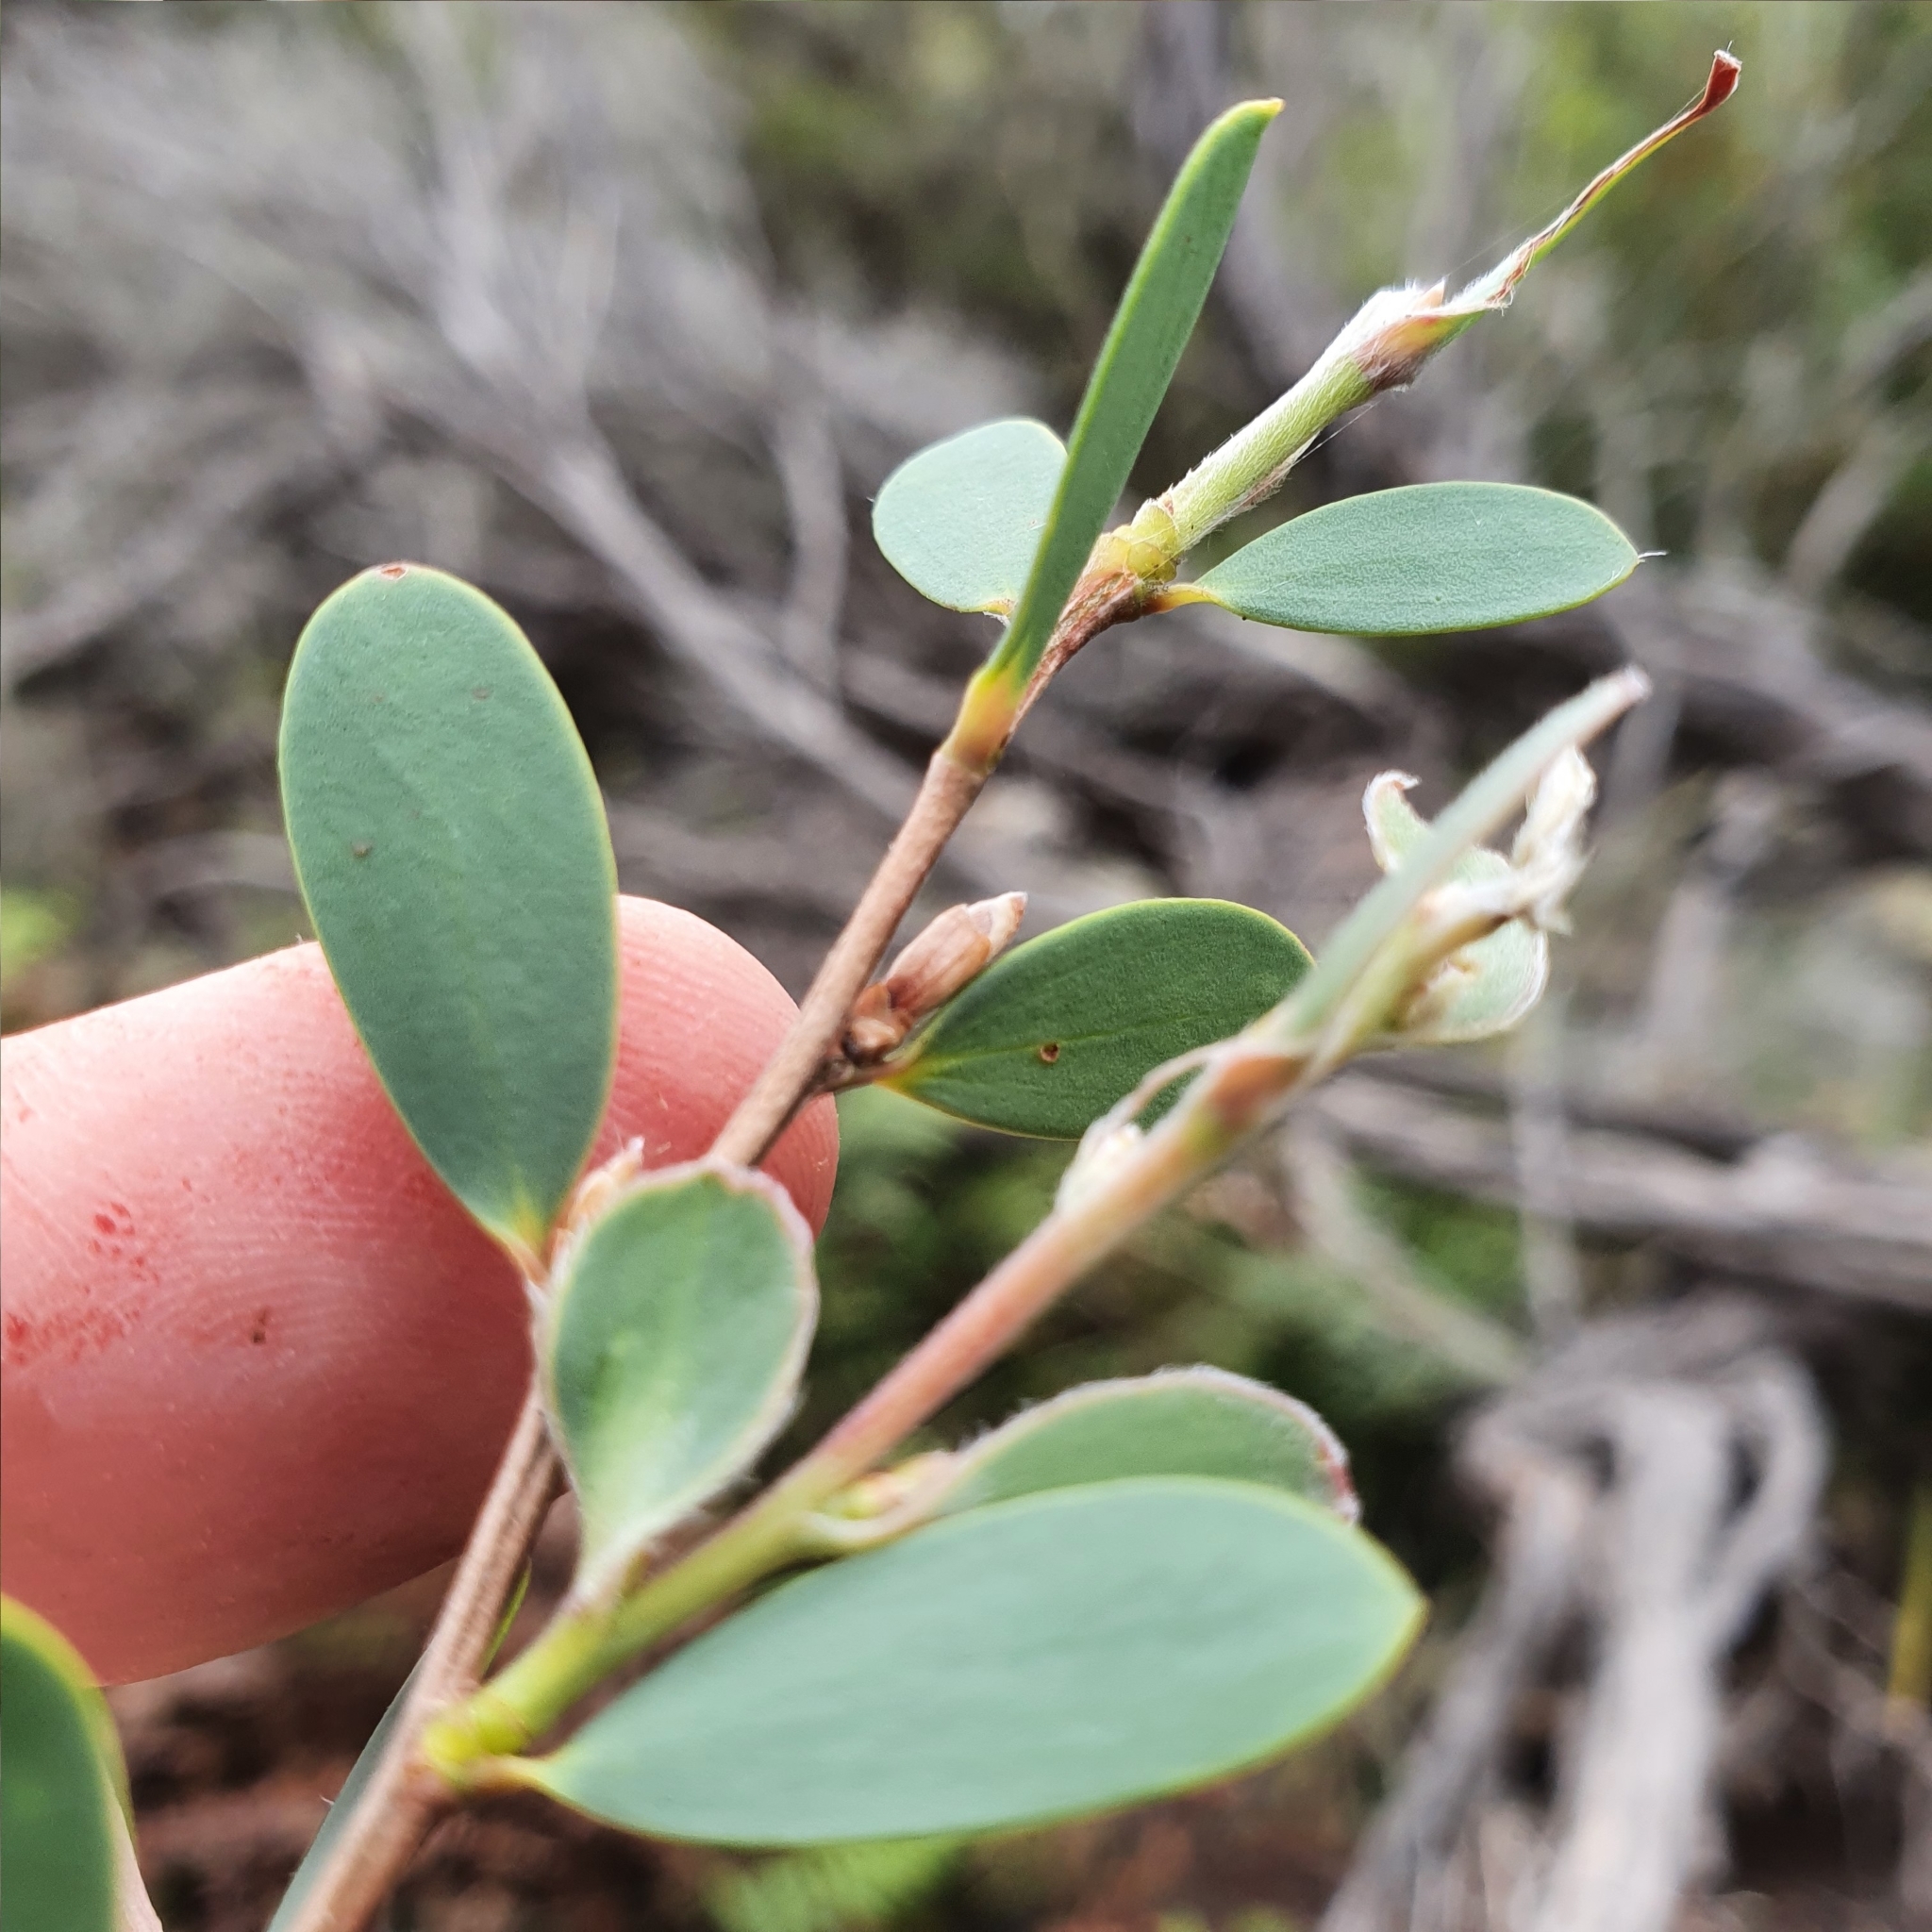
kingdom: Plantae
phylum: Tracheophyta
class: Magnoliopsida
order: Myrtales
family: Myrtaceae
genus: Leptospermum
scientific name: Leptospermum laevigatum
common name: Australian teatree
